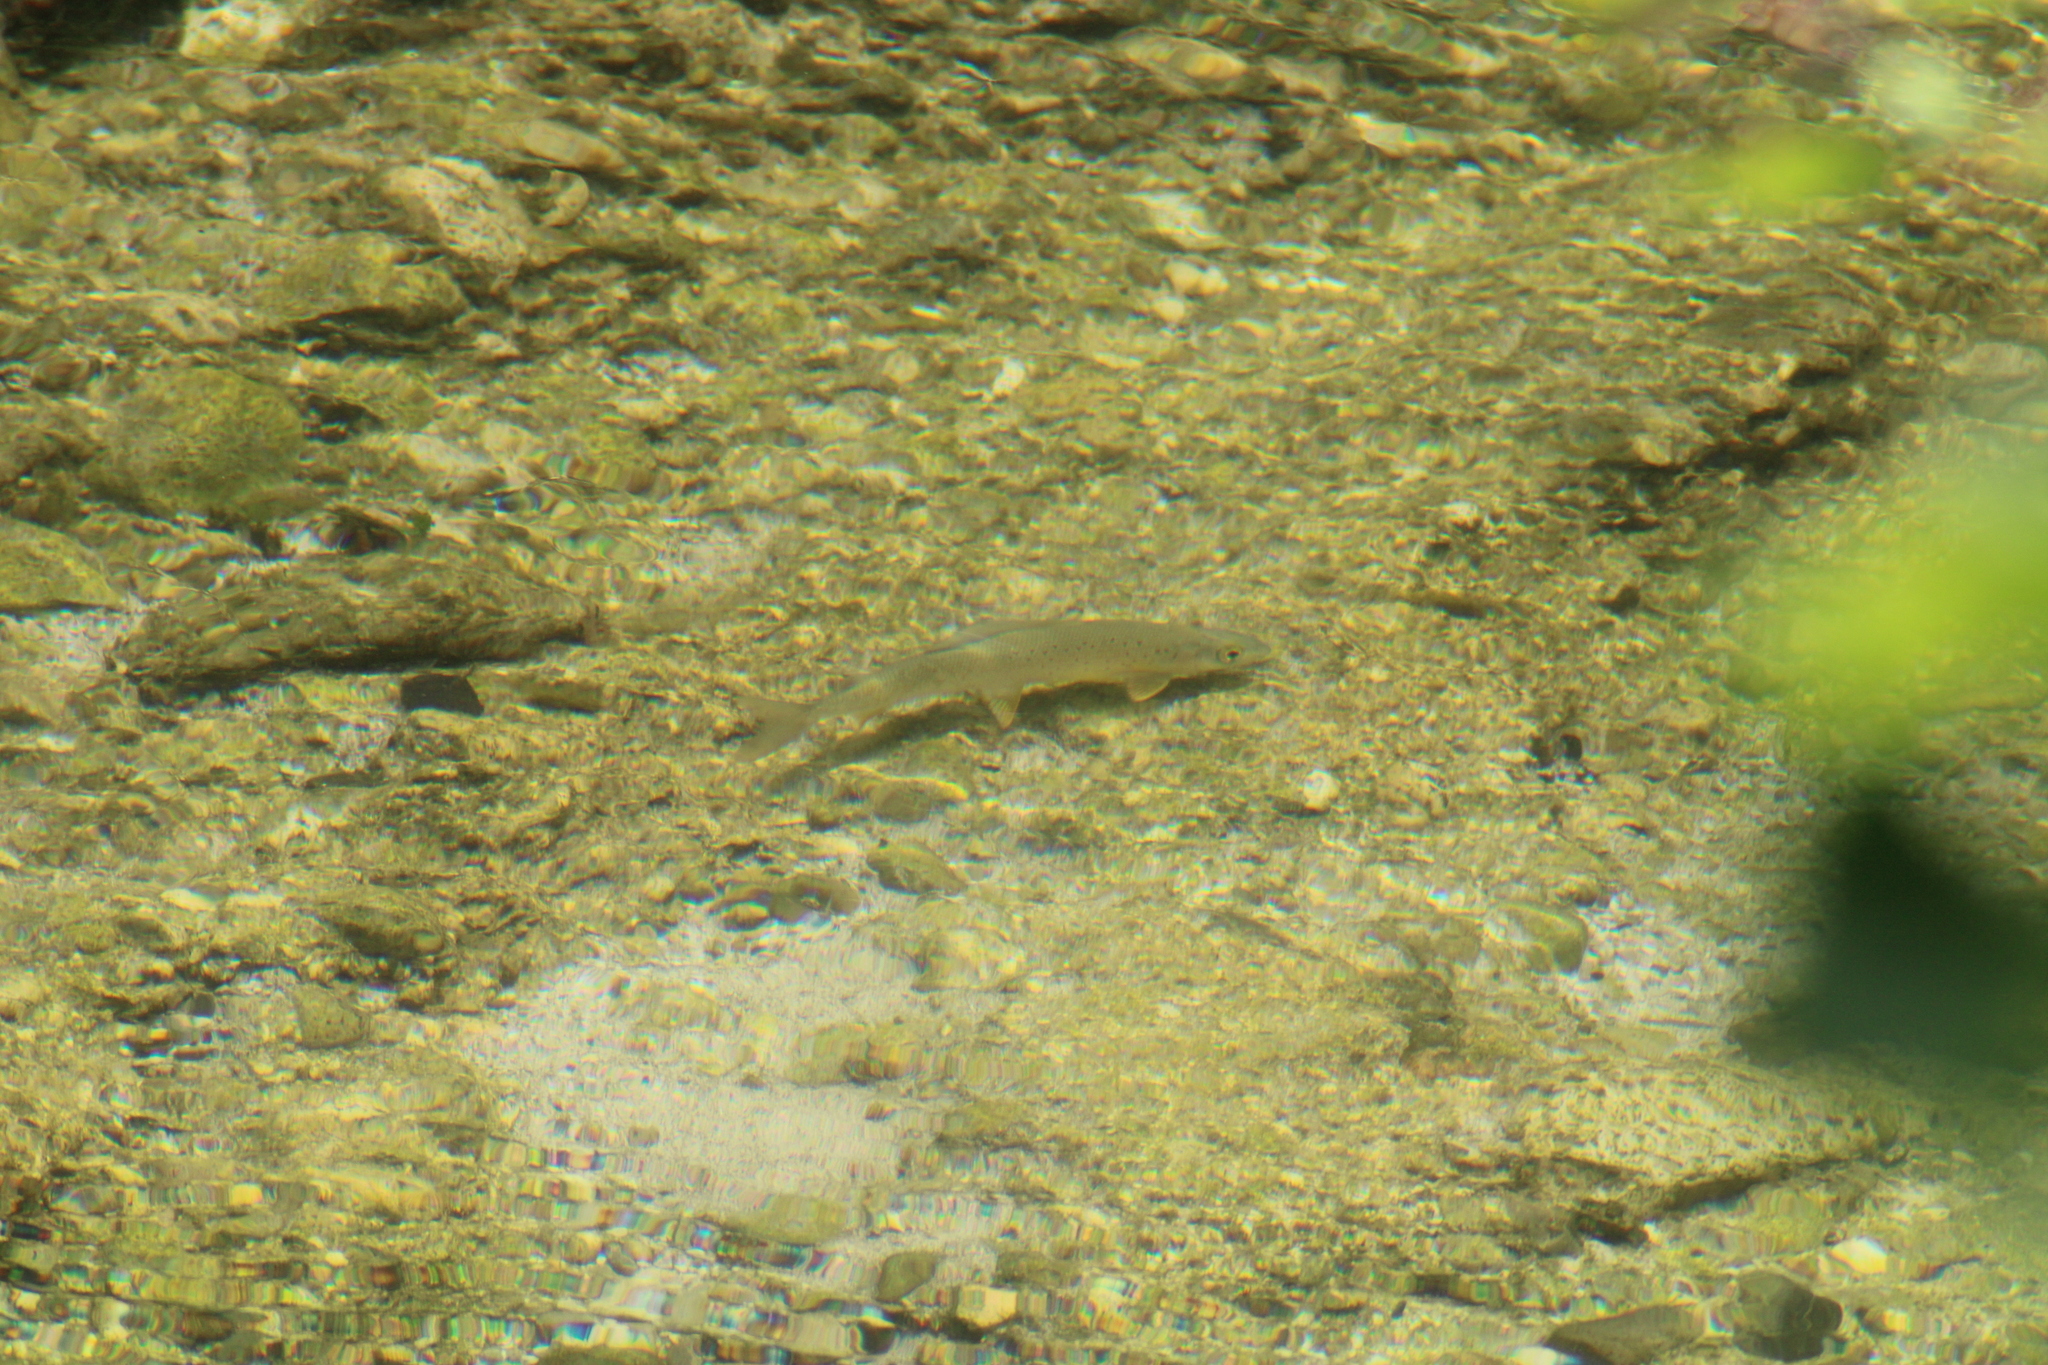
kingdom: Animalia
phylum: Chordata
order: Salmoniformes
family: Salmonidae
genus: Salmo
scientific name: Salmo trutta
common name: Brown trout
